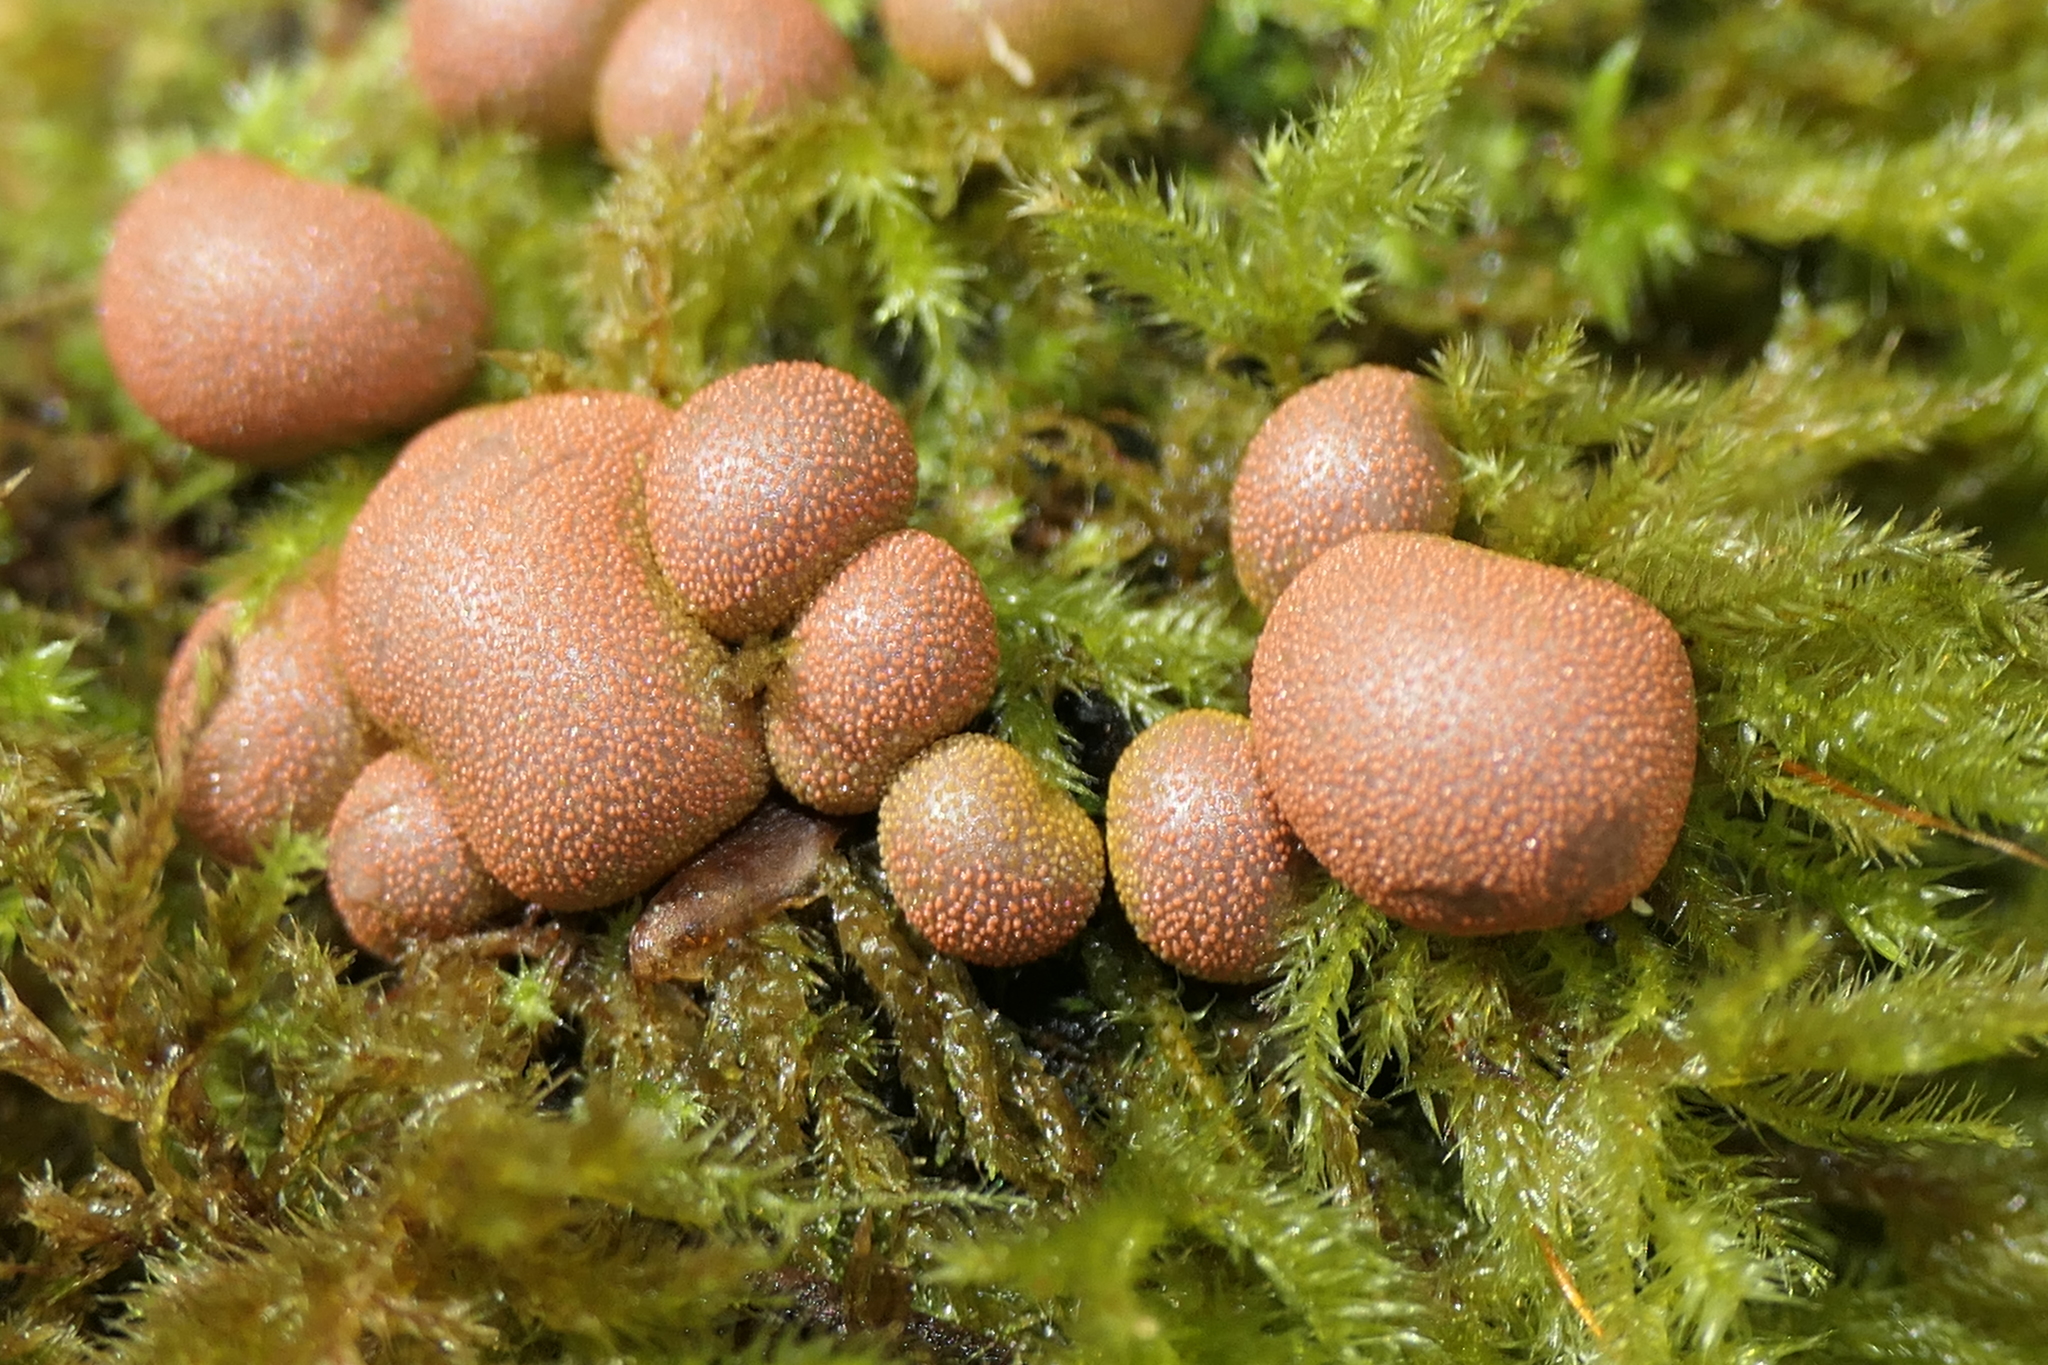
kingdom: Protozoa
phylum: Mycetozoa
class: Myxomycetes
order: Cribrariales
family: Tubiferaceae
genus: Lycogala
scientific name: Lycogala epidendrum
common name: Wolf's milk
